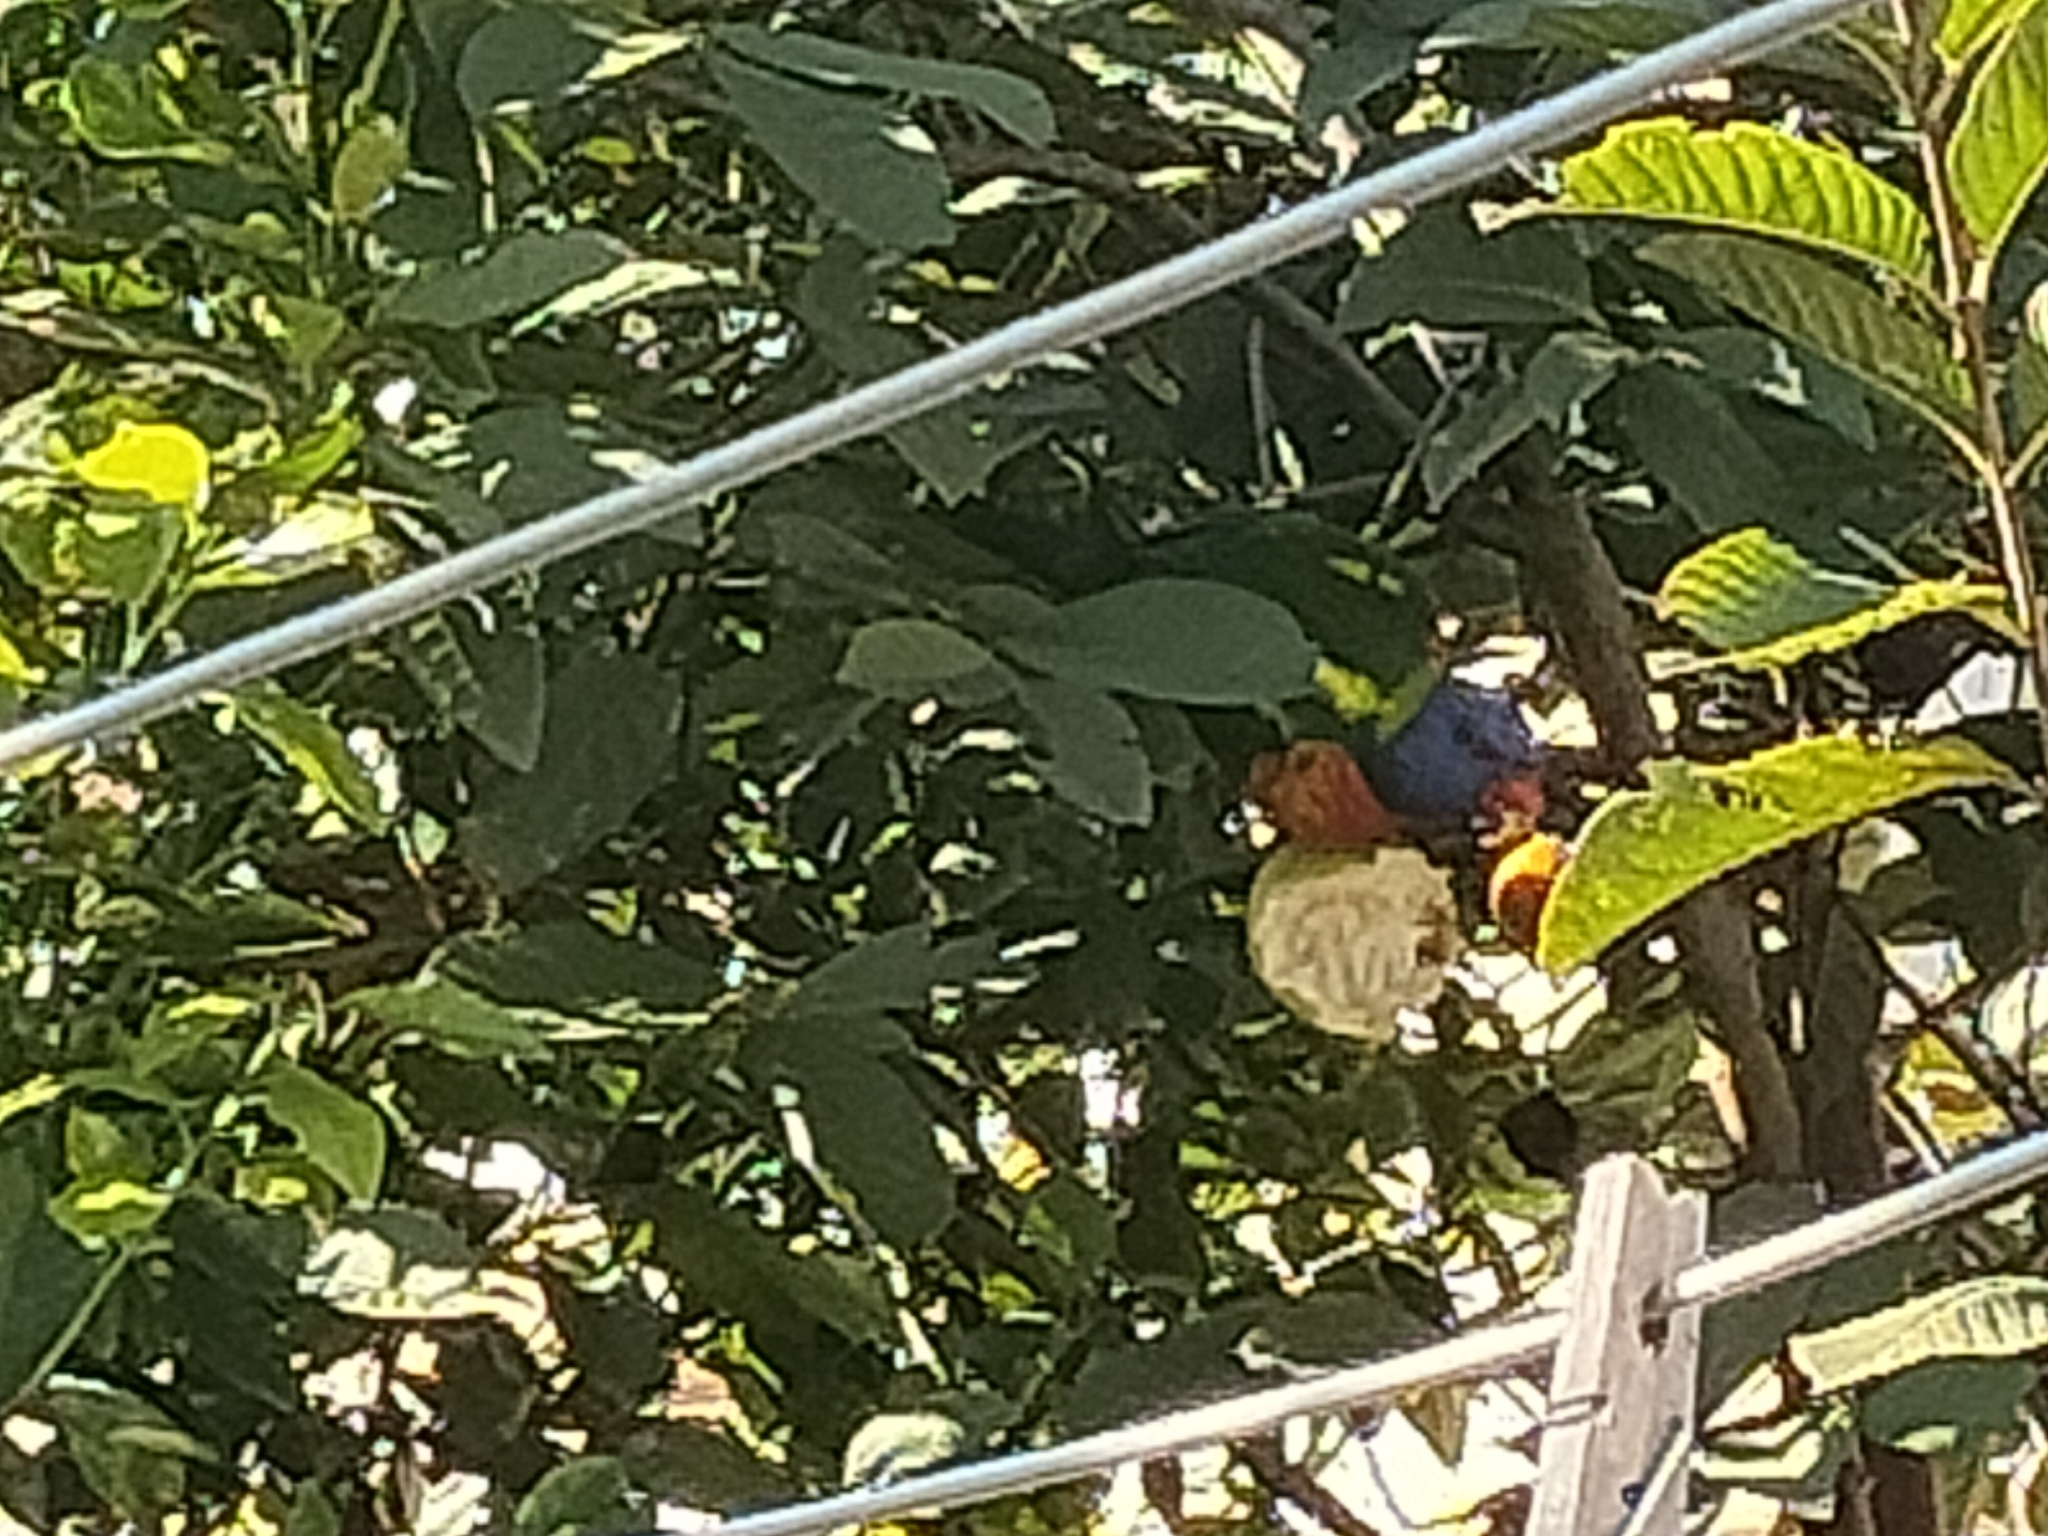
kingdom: Animalia
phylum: Chordata
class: Aves
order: Psittaciformes
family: Psittacidae
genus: Trichoglossus
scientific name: Trichoglossus haematodus
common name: Coconut lorikeet
